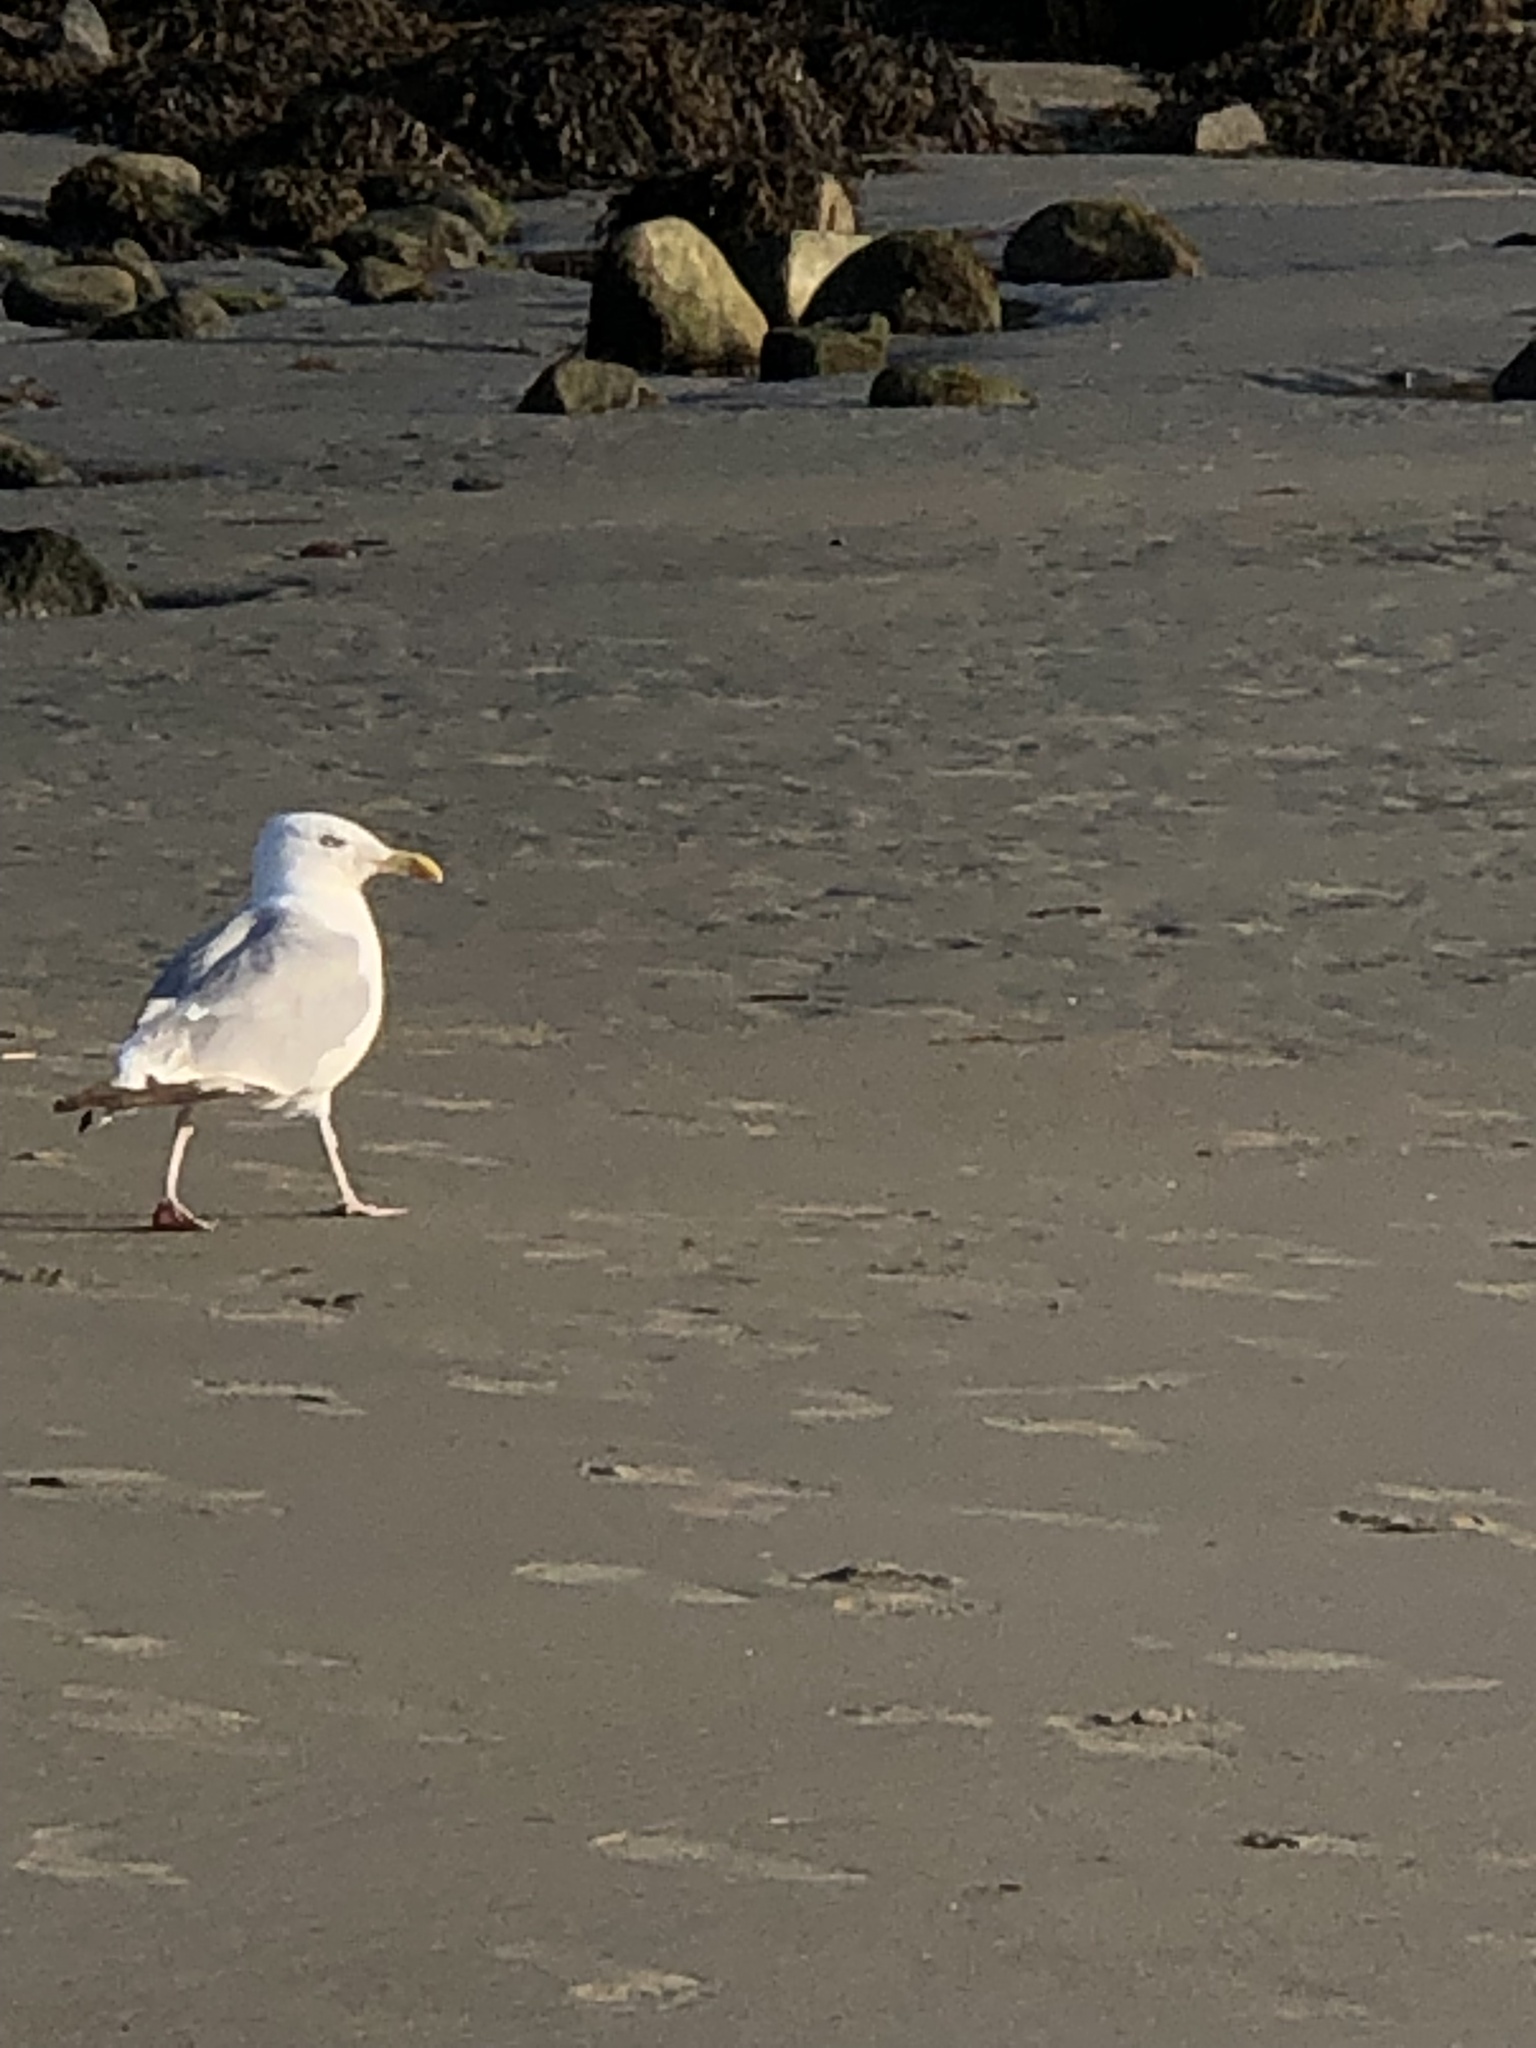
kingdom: Animalia
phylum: Chordata
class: Aves
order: Charadriiformes
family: Laridae
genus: Larus
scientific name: Larus argentatus
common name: Herring gull
